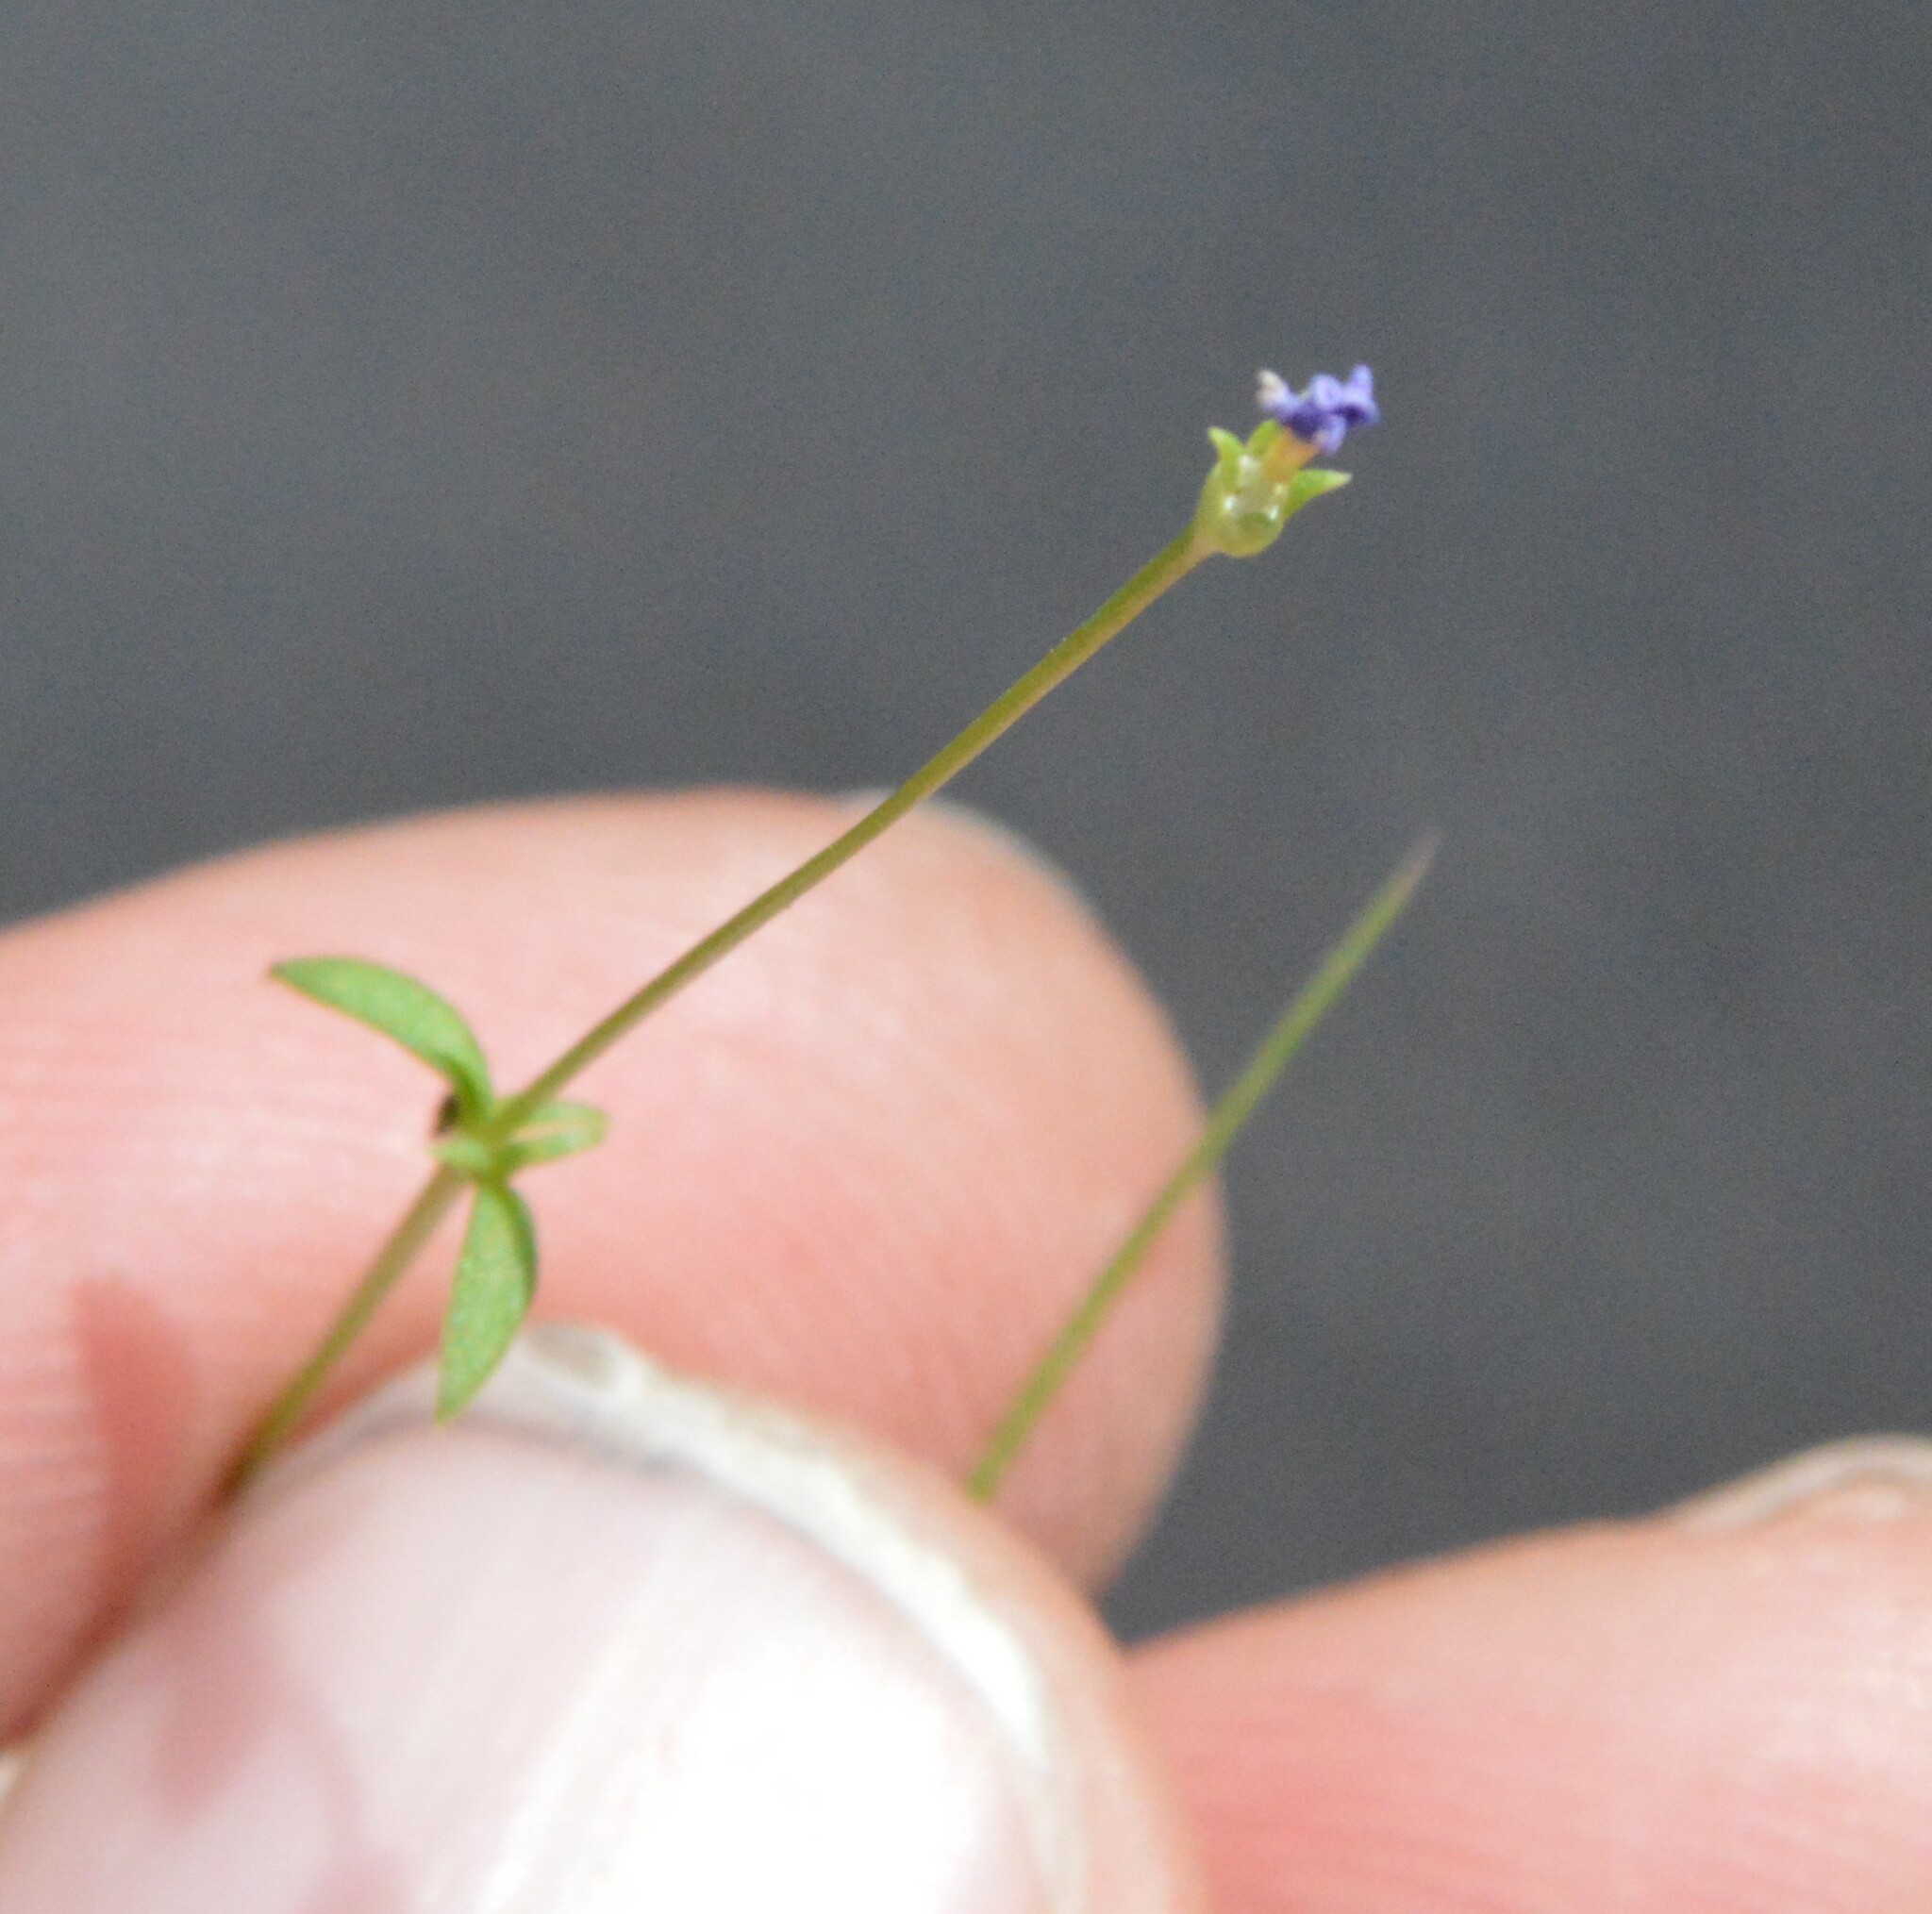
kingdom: Plantae
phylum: Tracheophyta
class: Magnoliopsida
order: Gentianales
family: Rubiaceae
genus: Houstonia
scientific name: Houstonia pusilla
